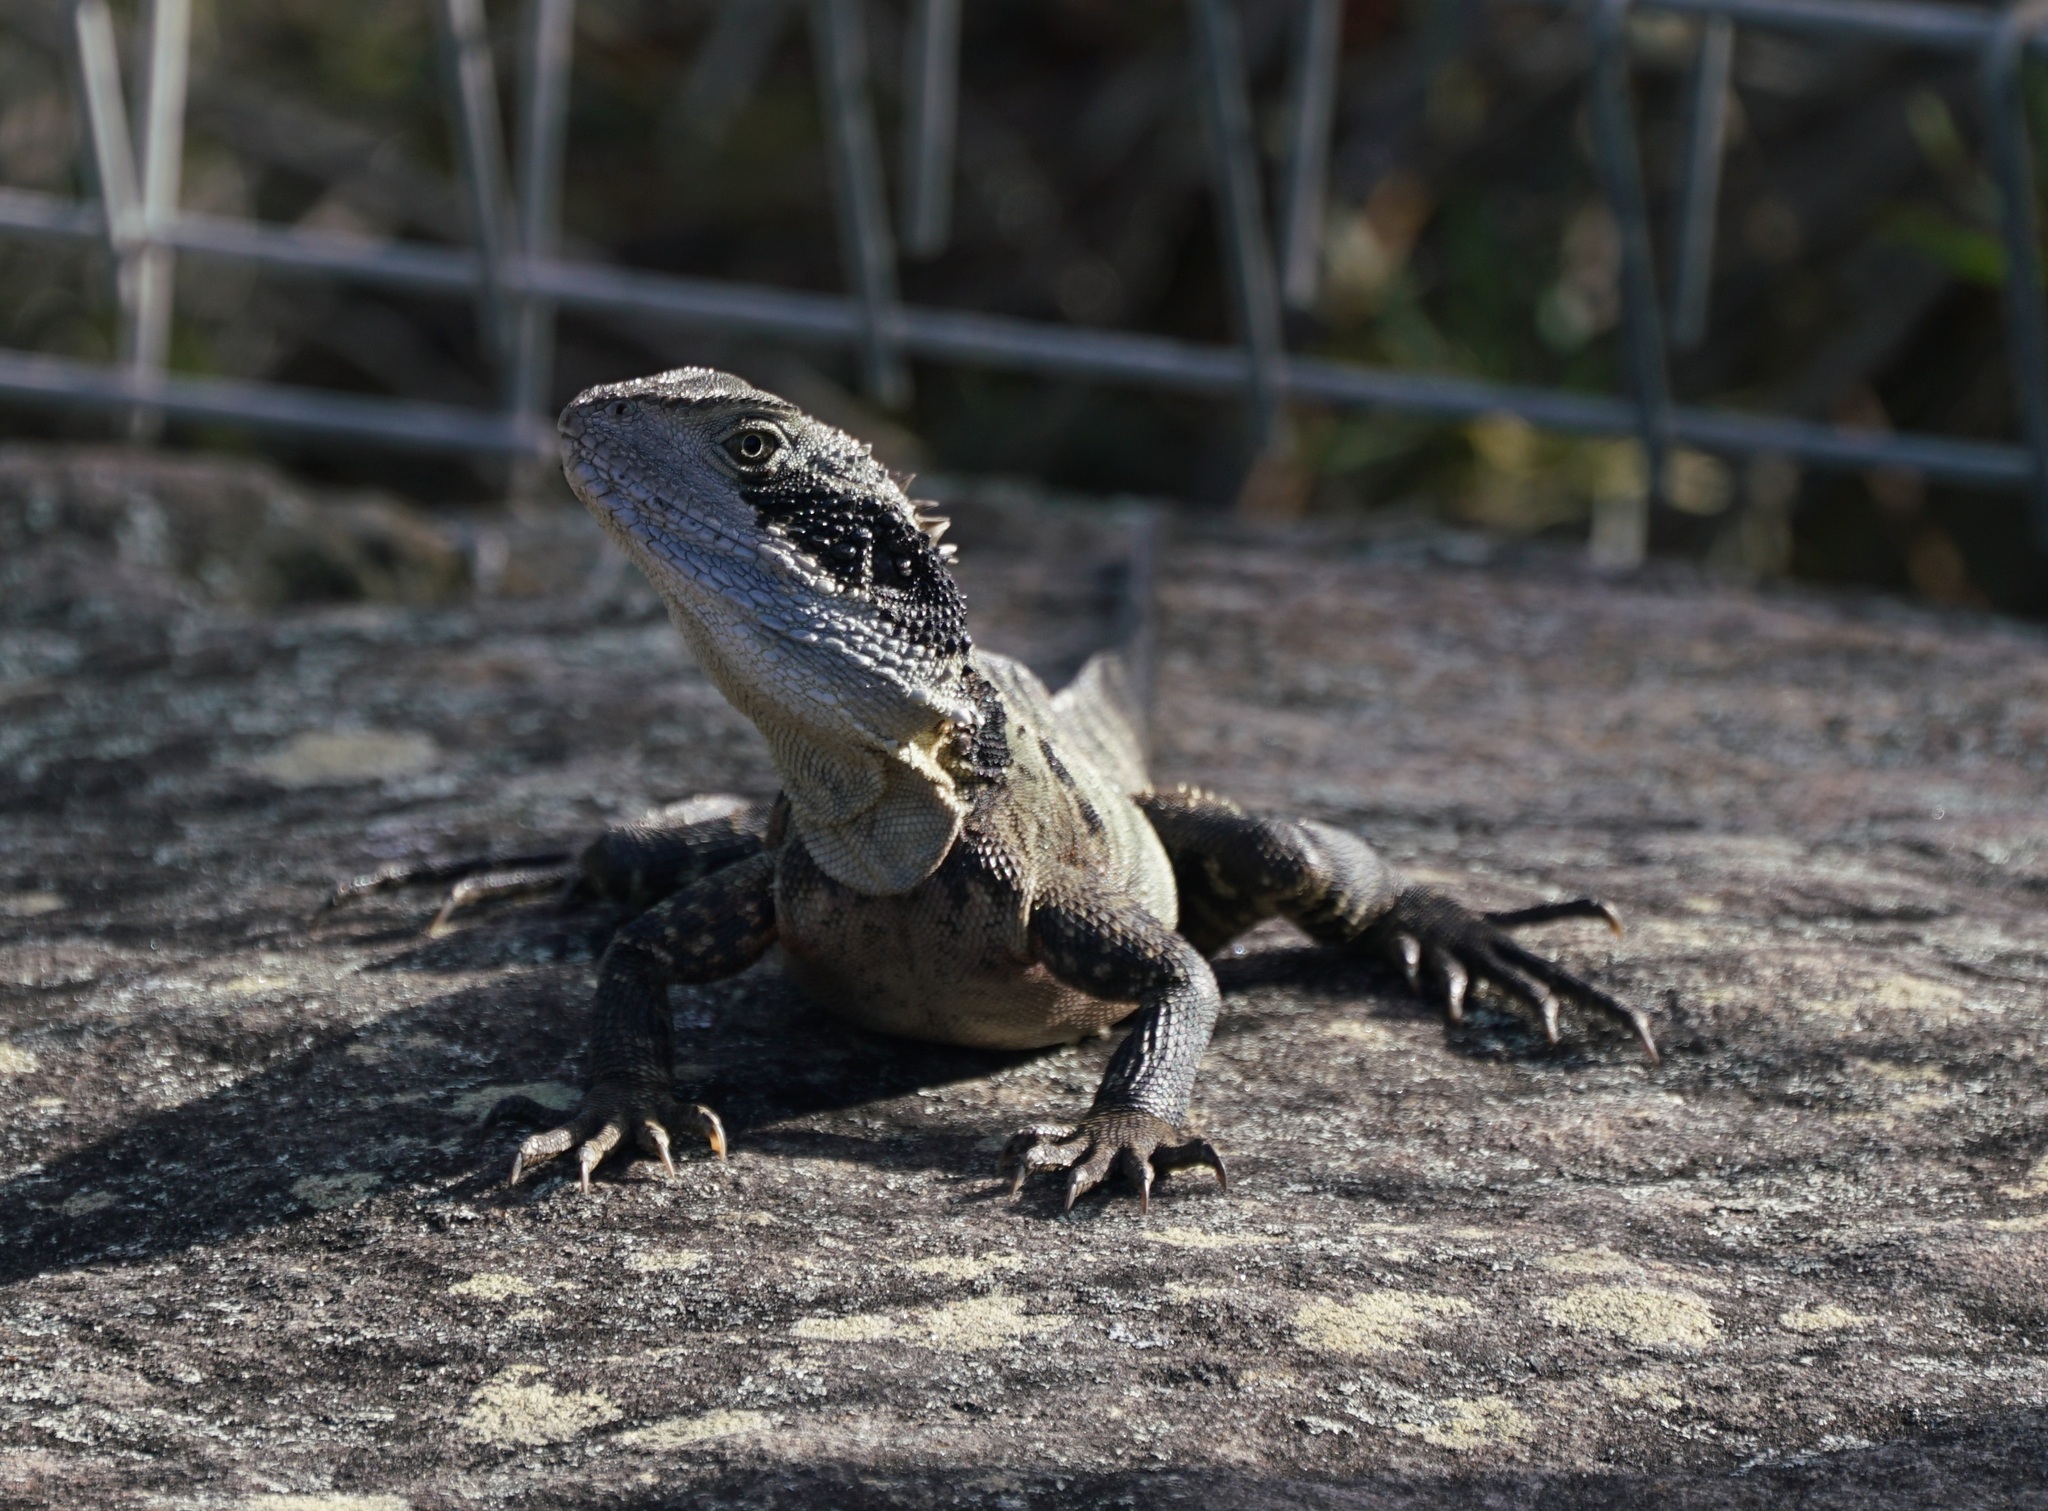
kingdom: Animalia
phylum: Chordata
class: Squamata
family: Agamidae
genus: Intellagama
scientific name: Intellagama lesueurii
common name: Eastern water dragon
